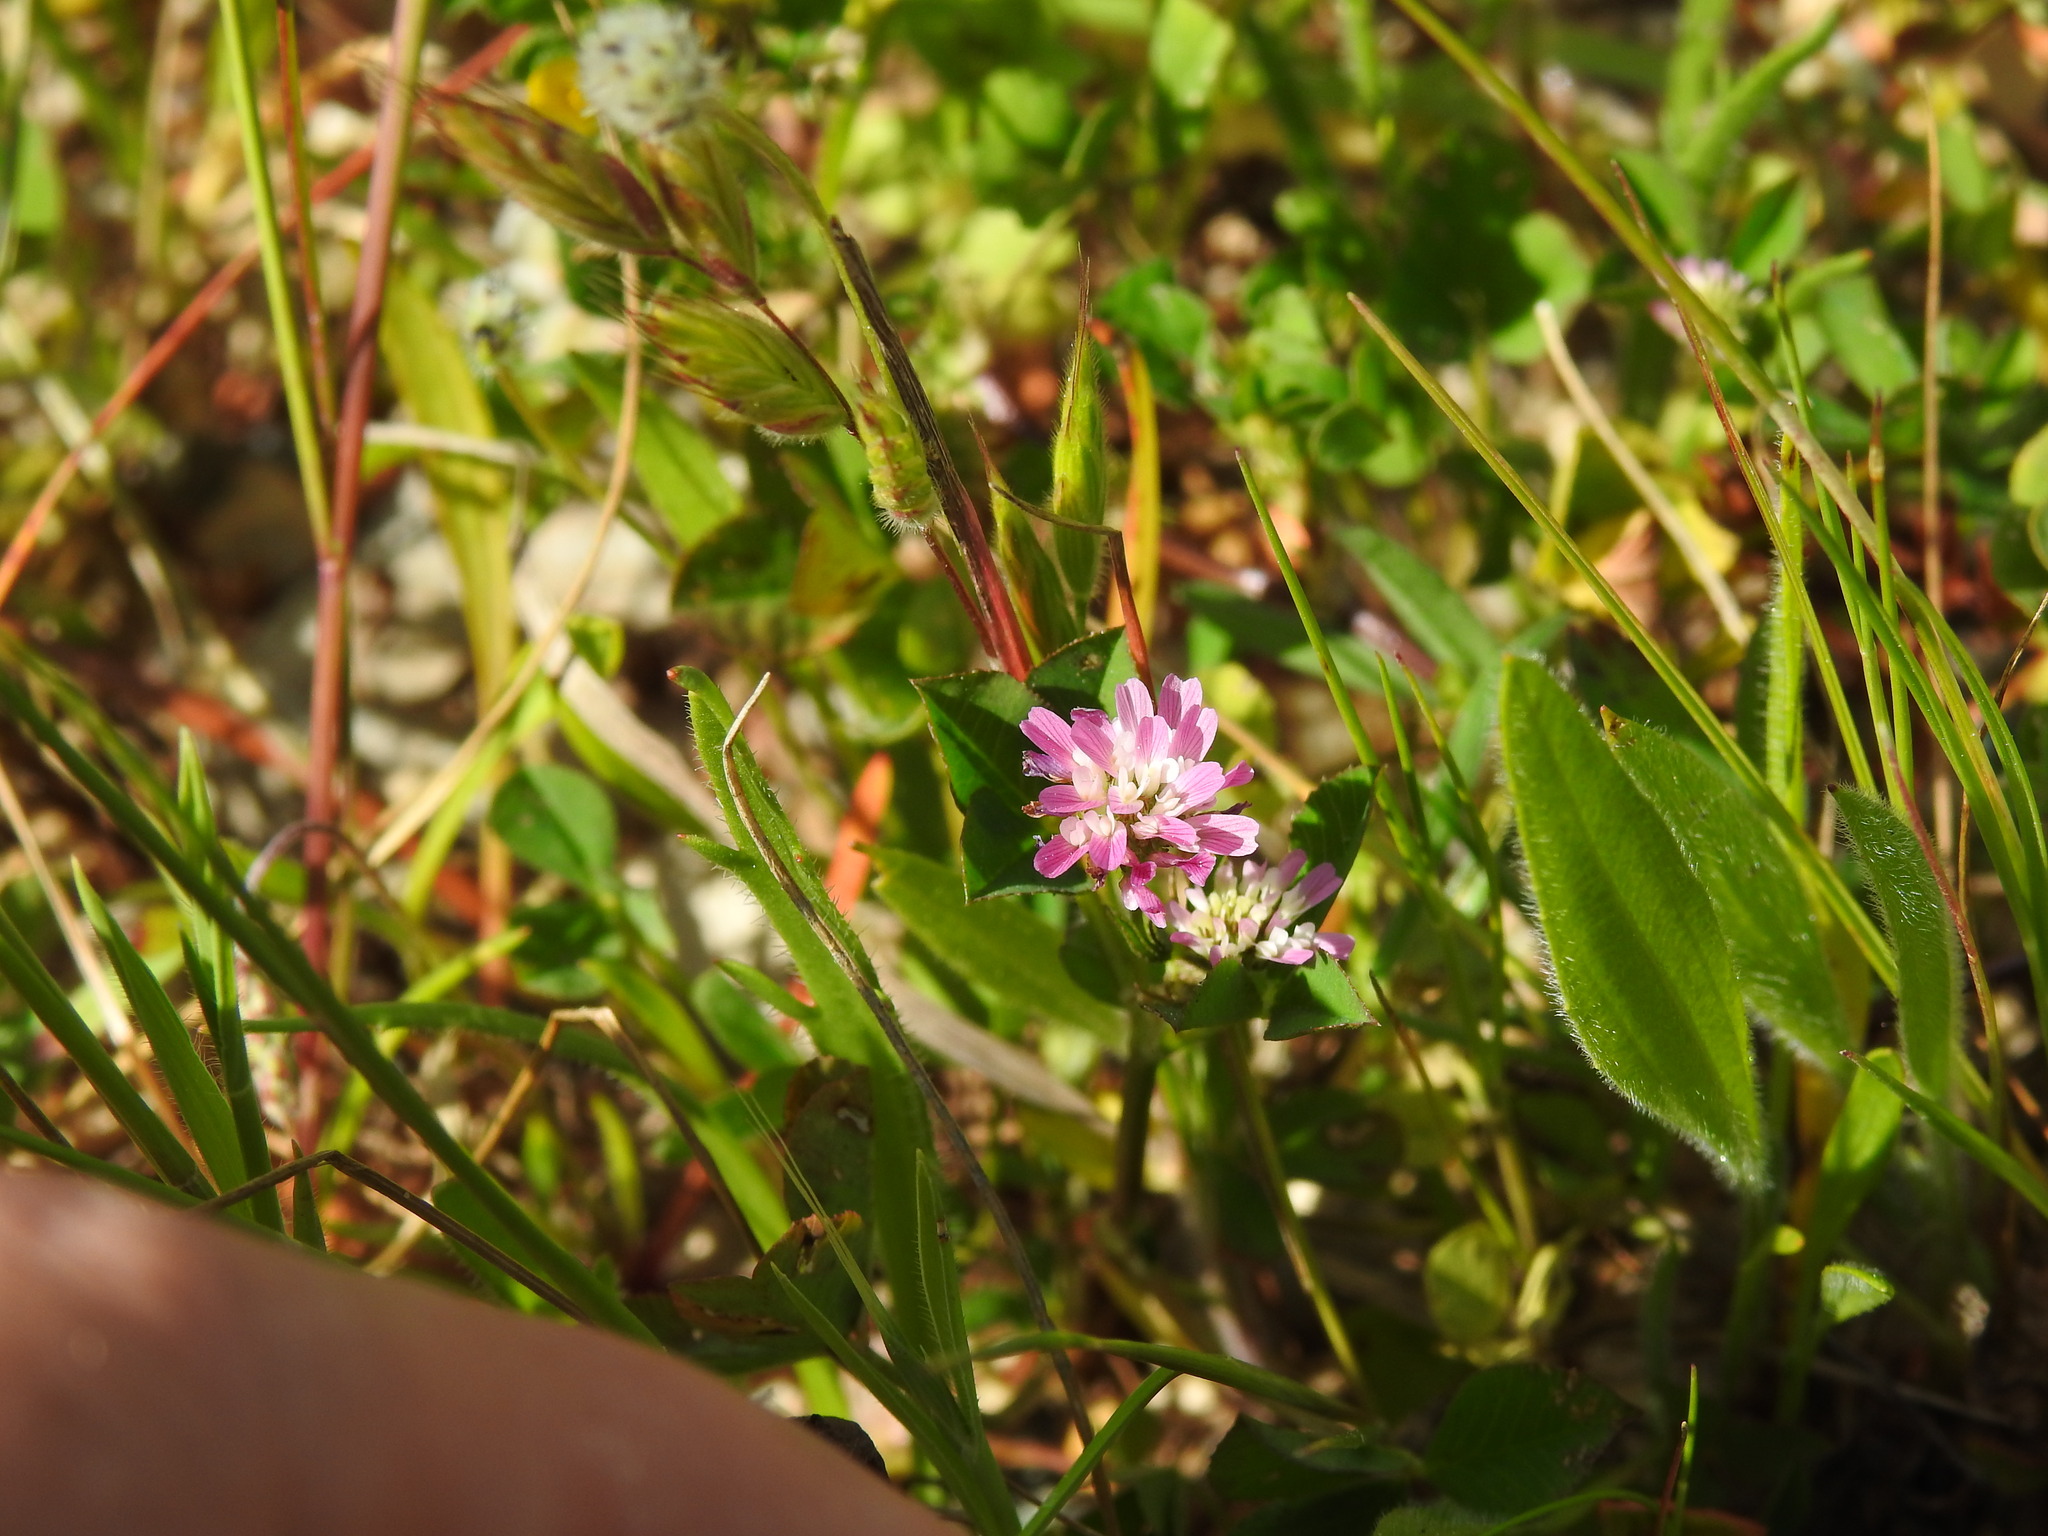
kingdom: Plantae
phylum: Tracheophyta
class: Magnoliopsida
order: Fabales
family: Fabaceae
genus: Trifolium
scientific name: Trifolium resupinatum
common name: Reversed clover
